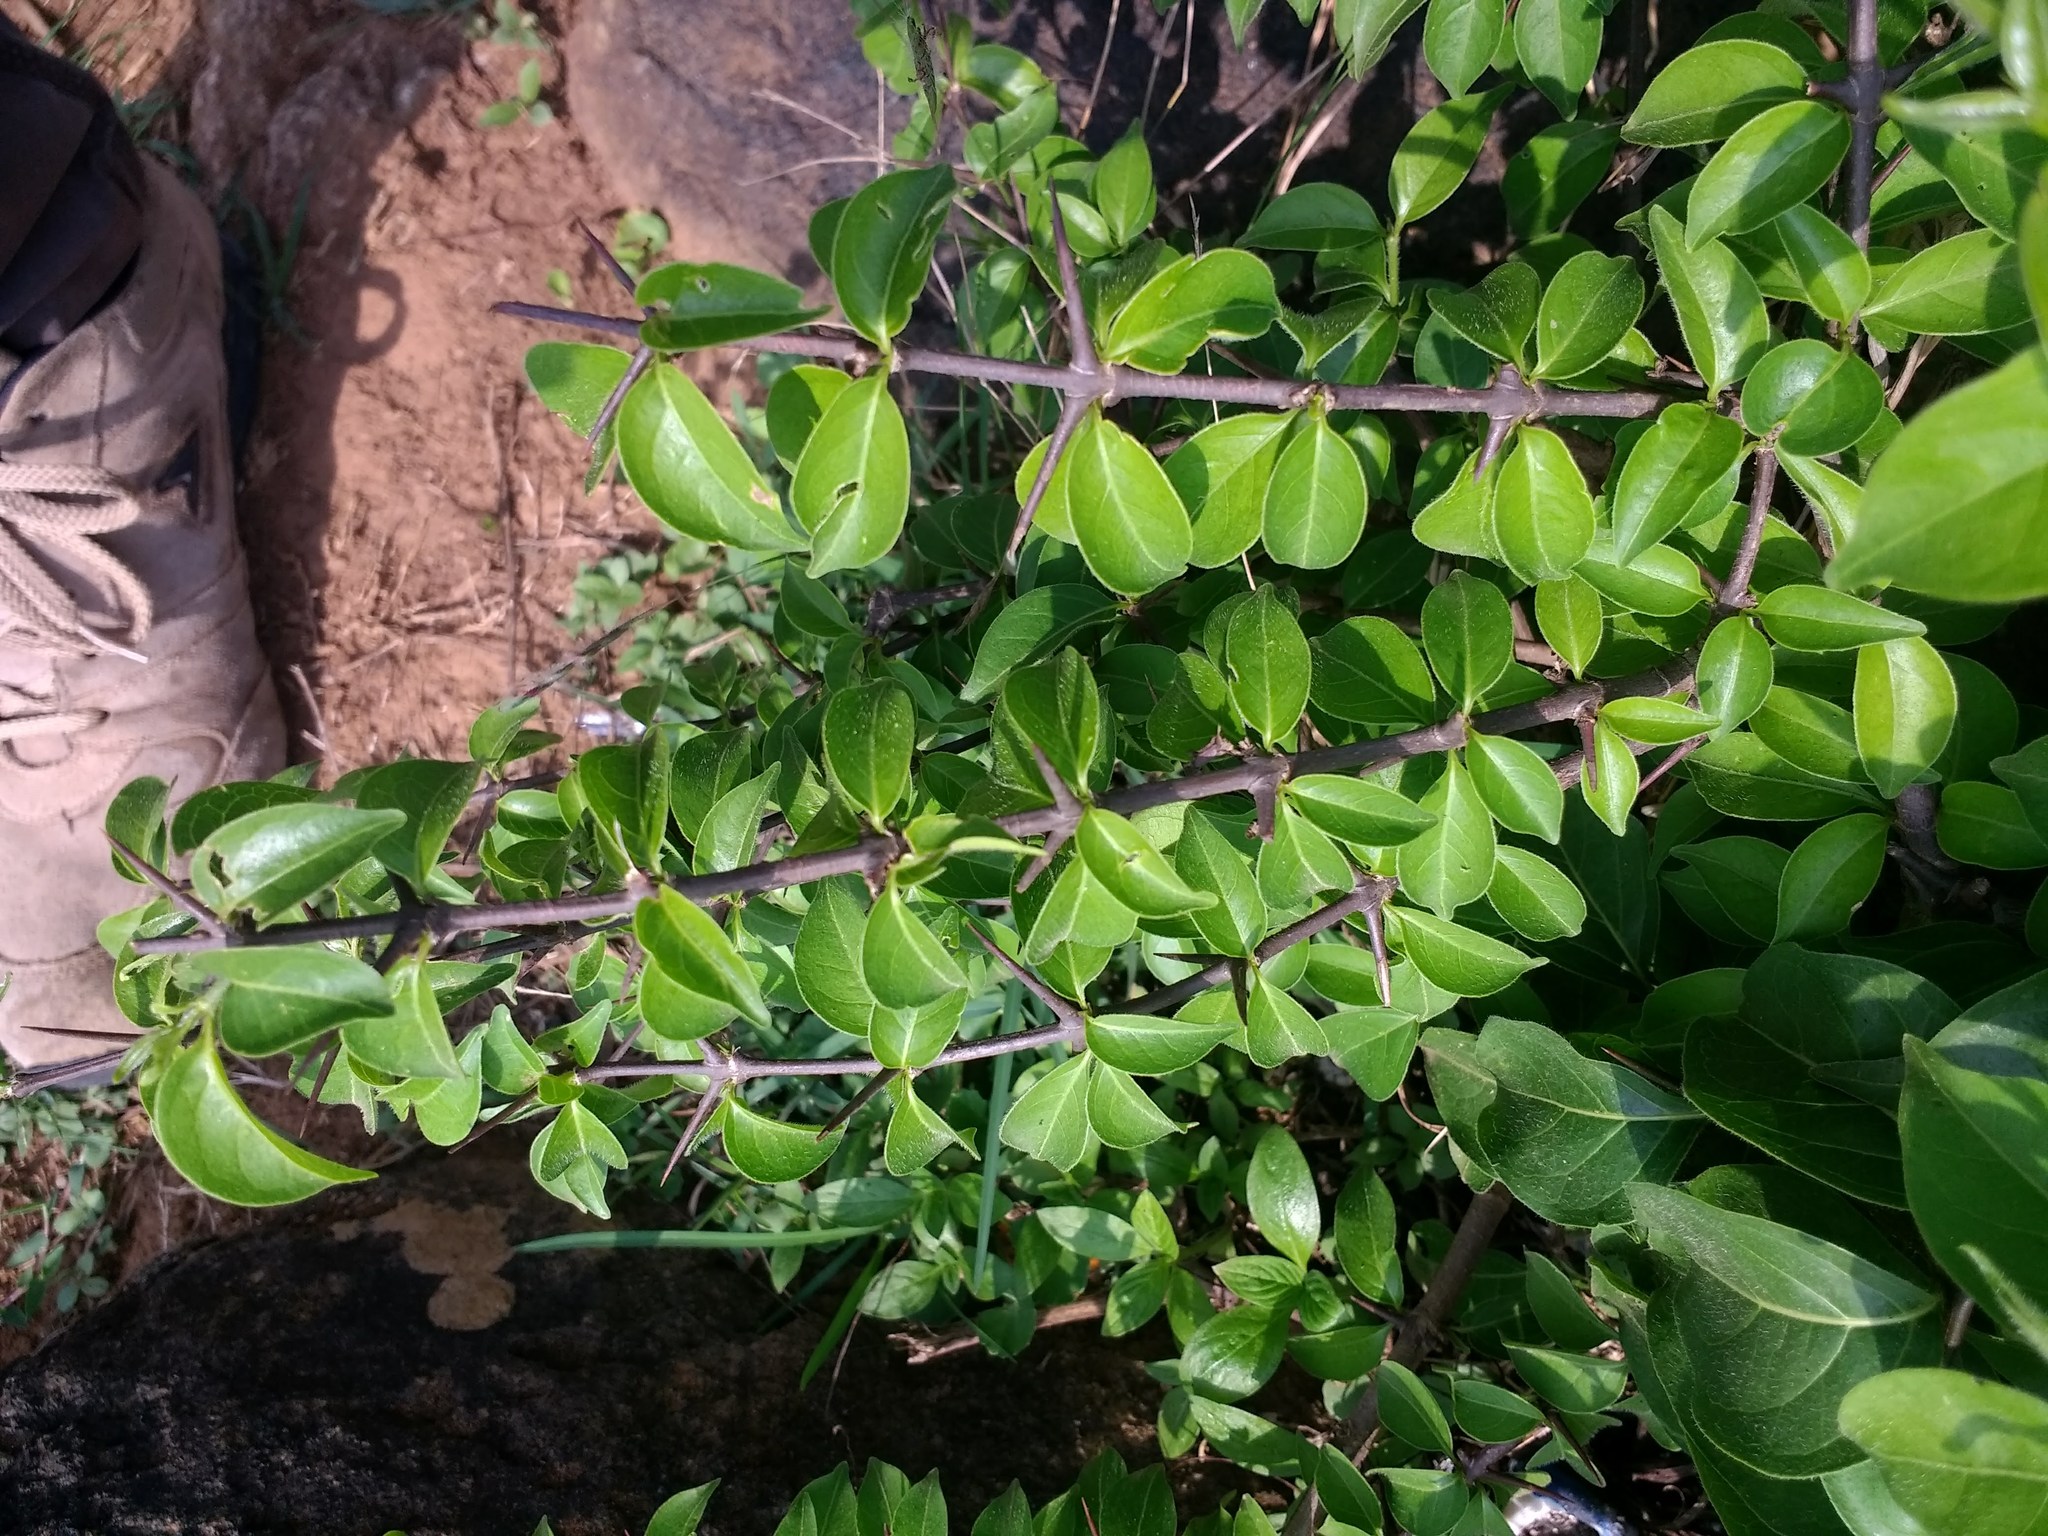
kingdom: Plantae
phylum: Tracheophyta
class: Magnoliopsida
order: Gentianales
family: Rubiaceae
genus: Canthium
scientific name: Canthium coromandelicum
